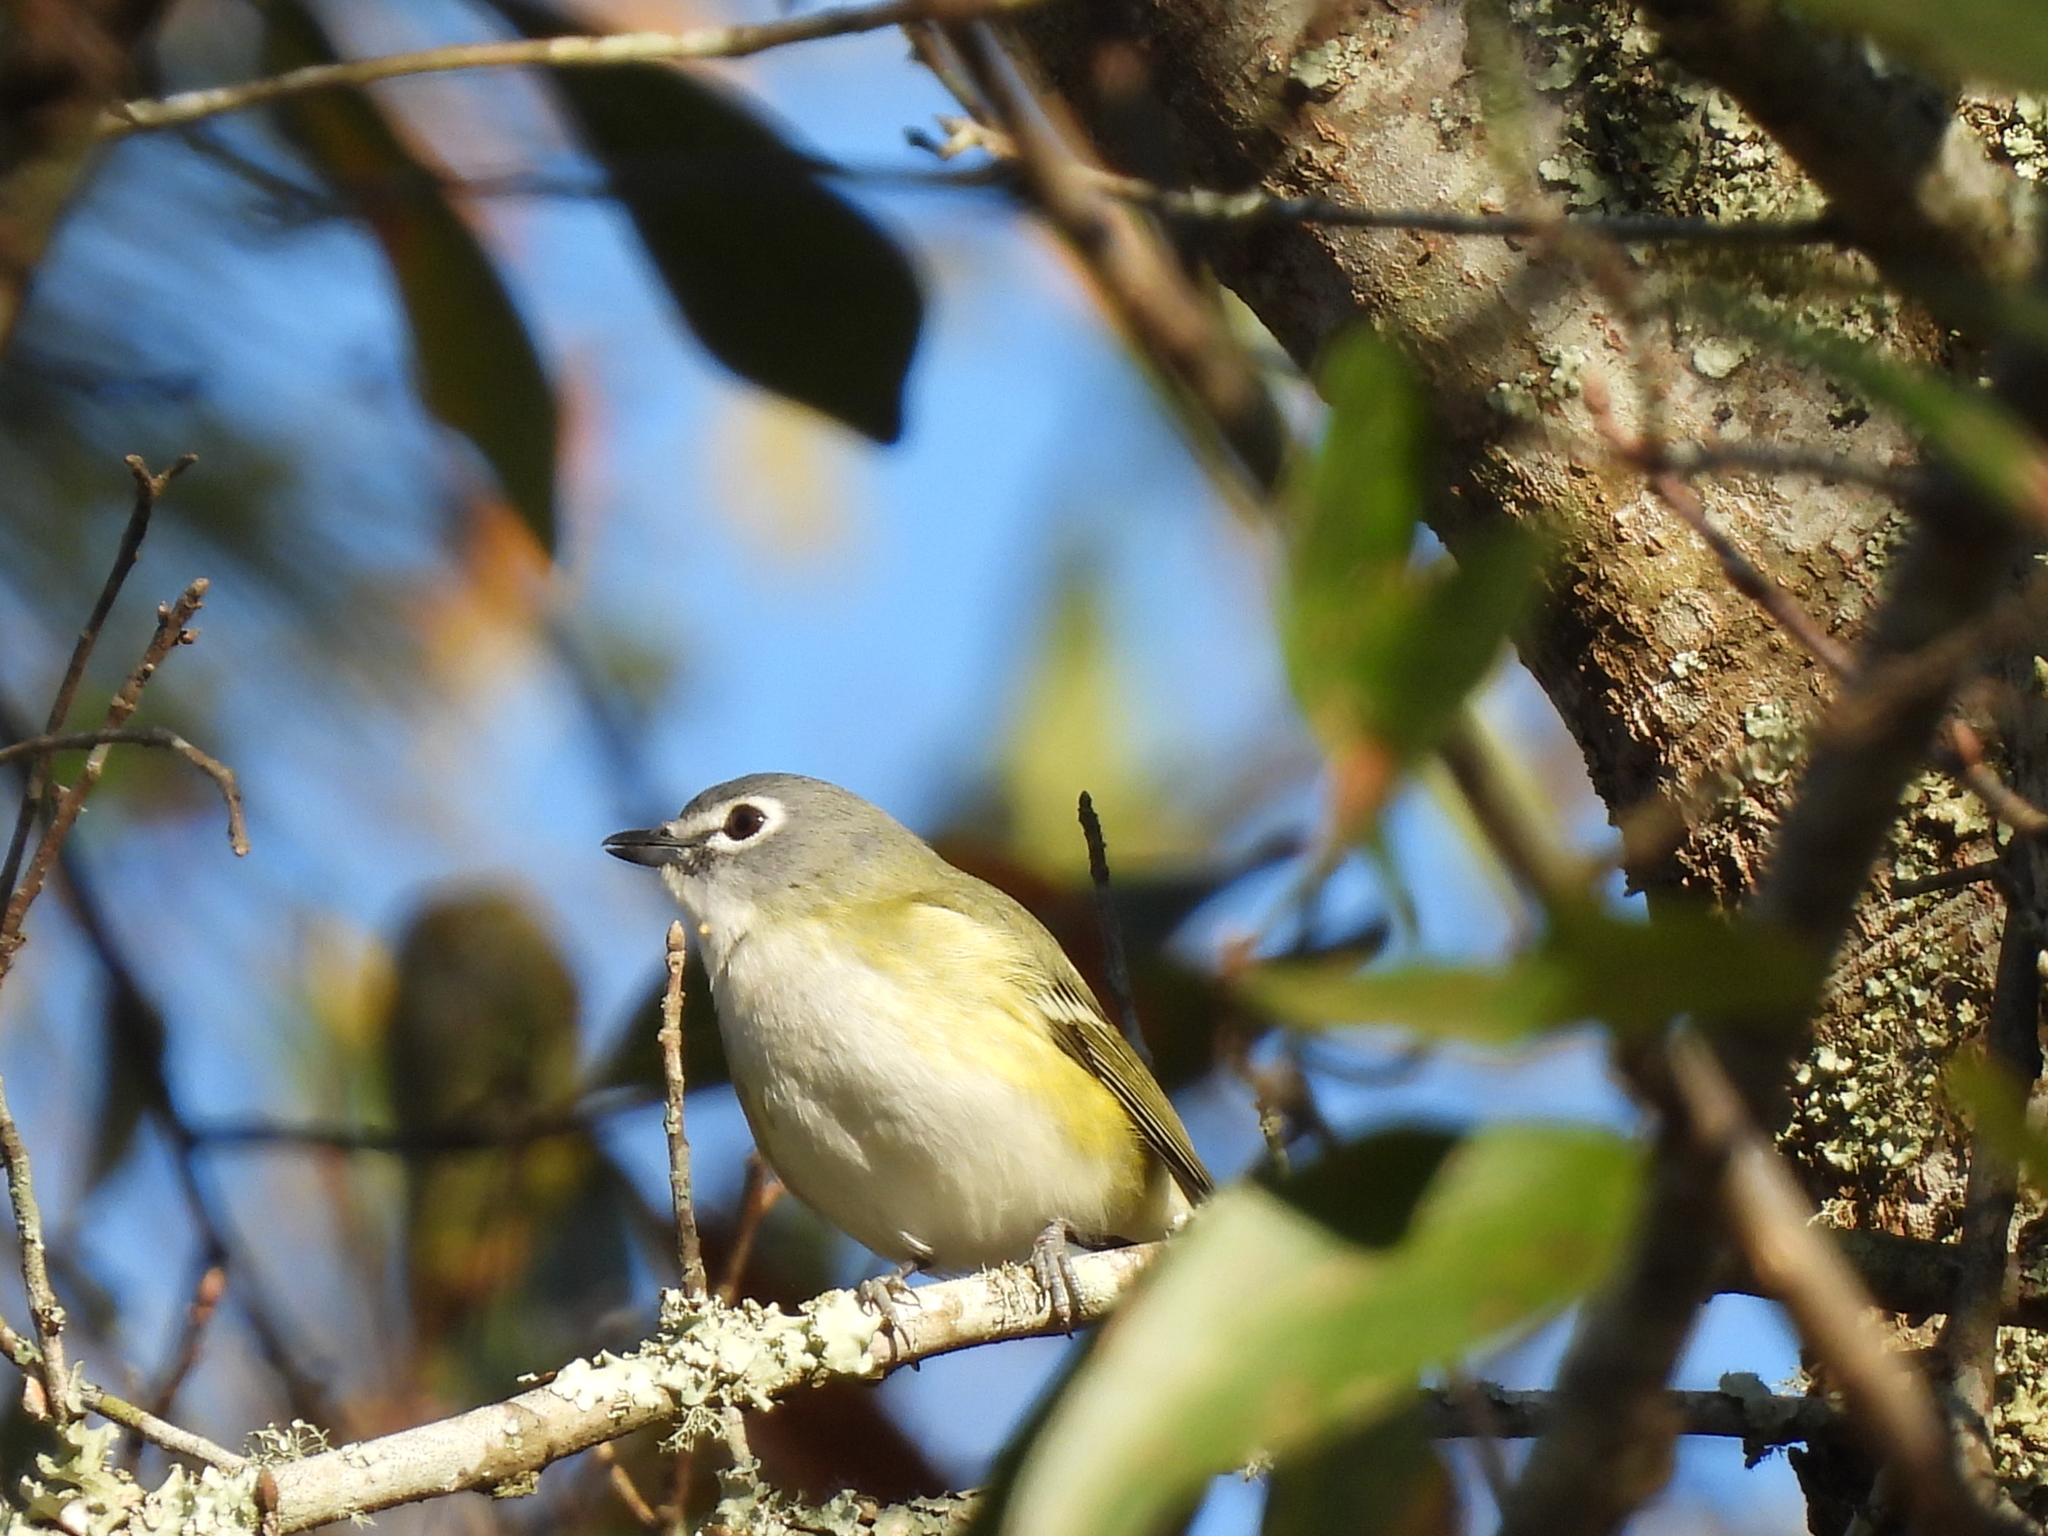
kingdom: Animalia
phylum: Chordata
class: Aves
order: Passeriformes
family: Vireonidae
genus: Vireo
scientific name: Vireo solitarius
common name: Blue-headed vireo
